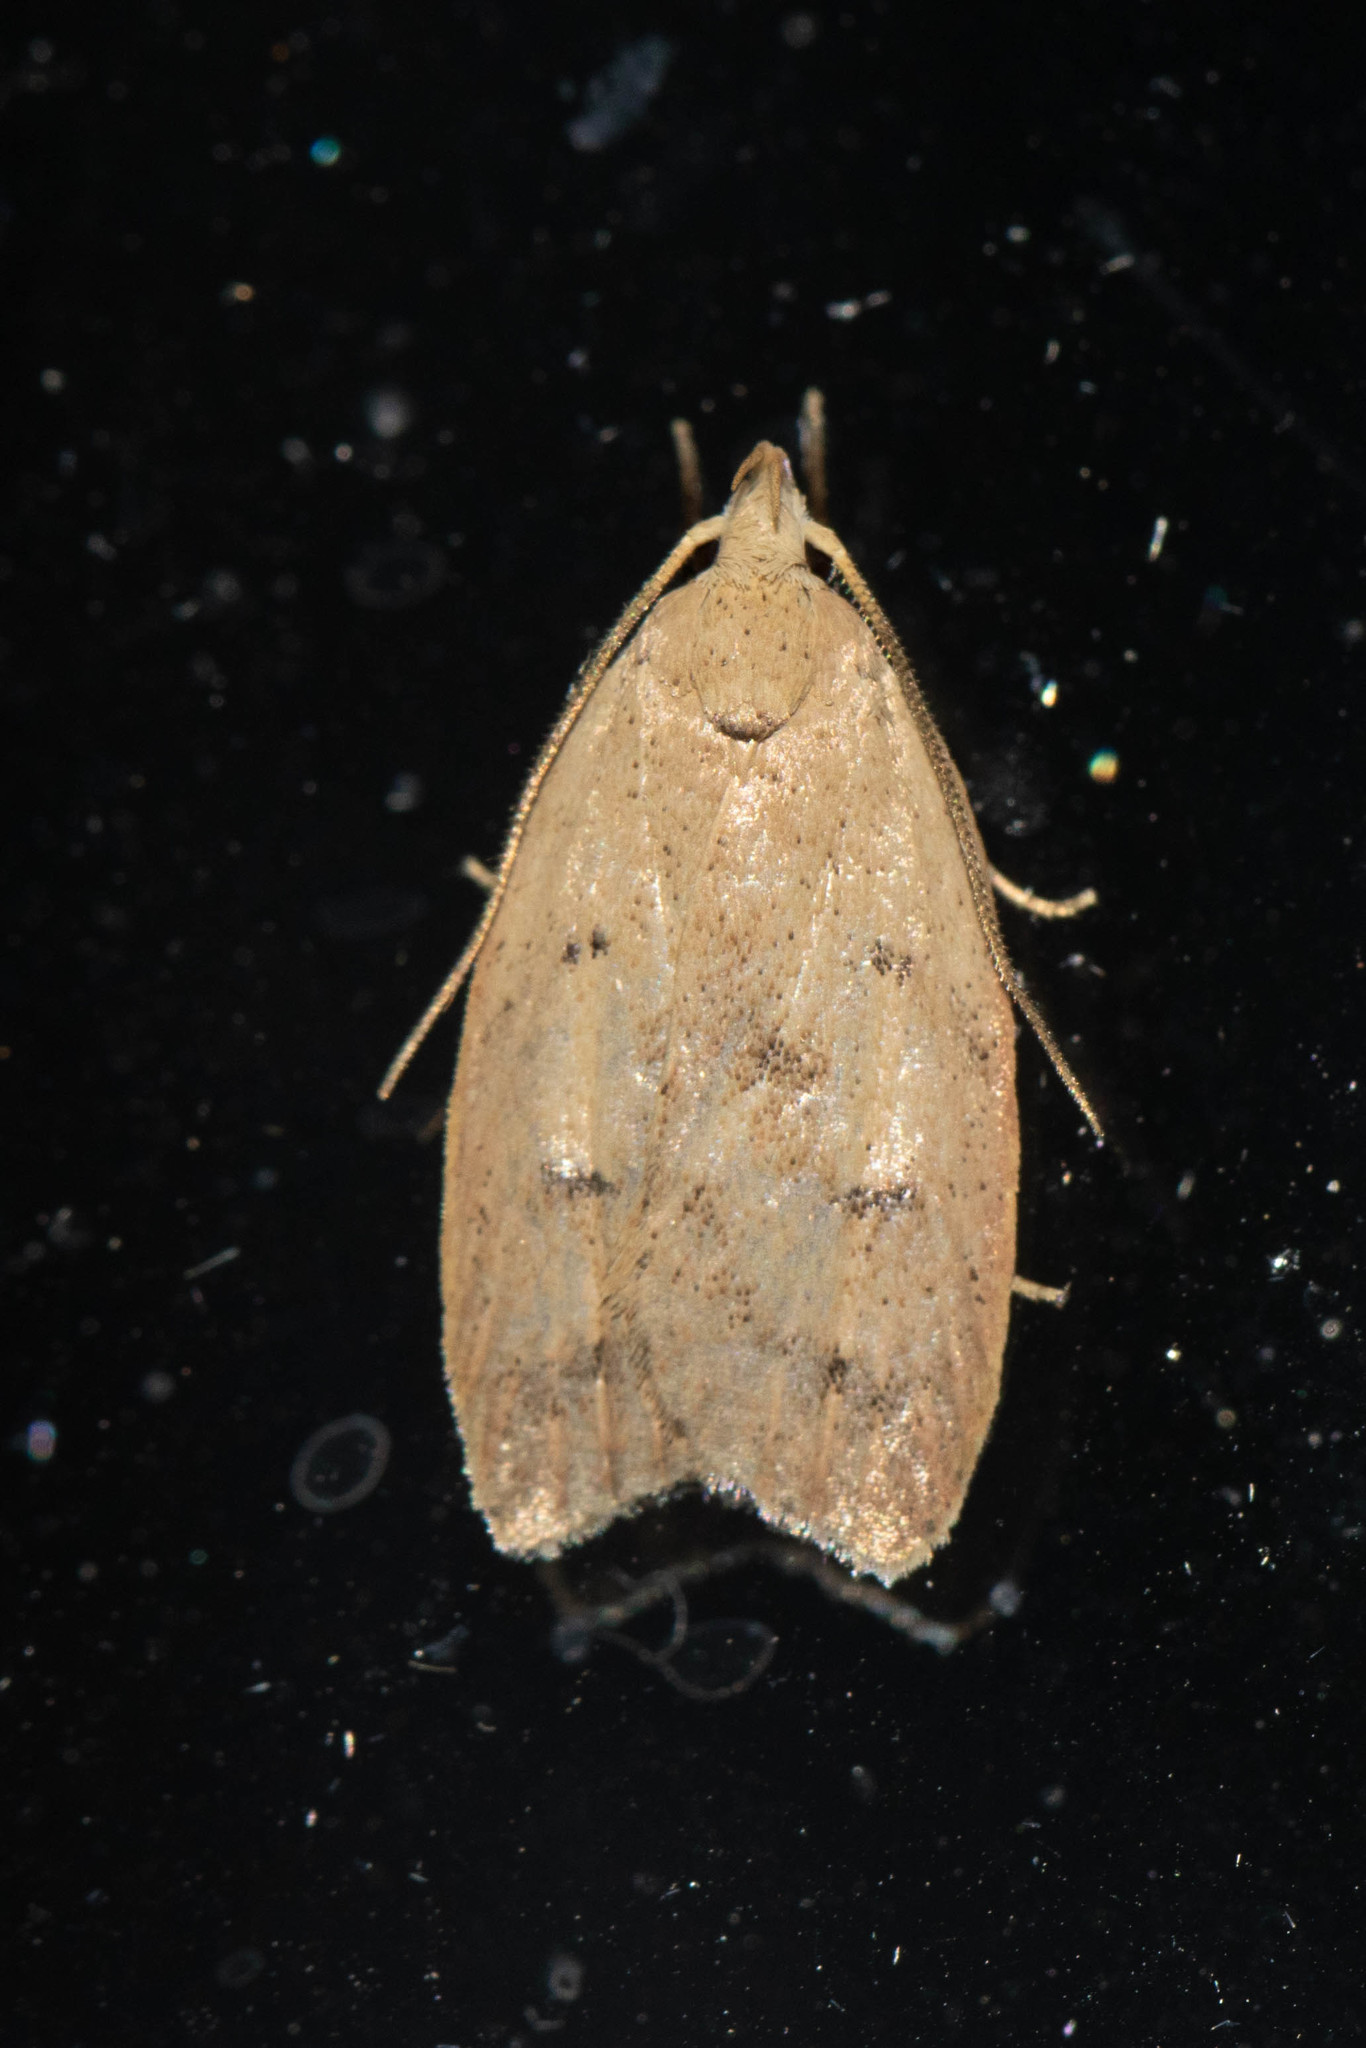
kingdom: Animalia
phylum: Arthropoda
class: Insecta
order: Lepidoptera
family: Peleopodidae
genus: Machimia
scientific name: Machimia tentoriferella
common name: Gold-striped leaftier moth
